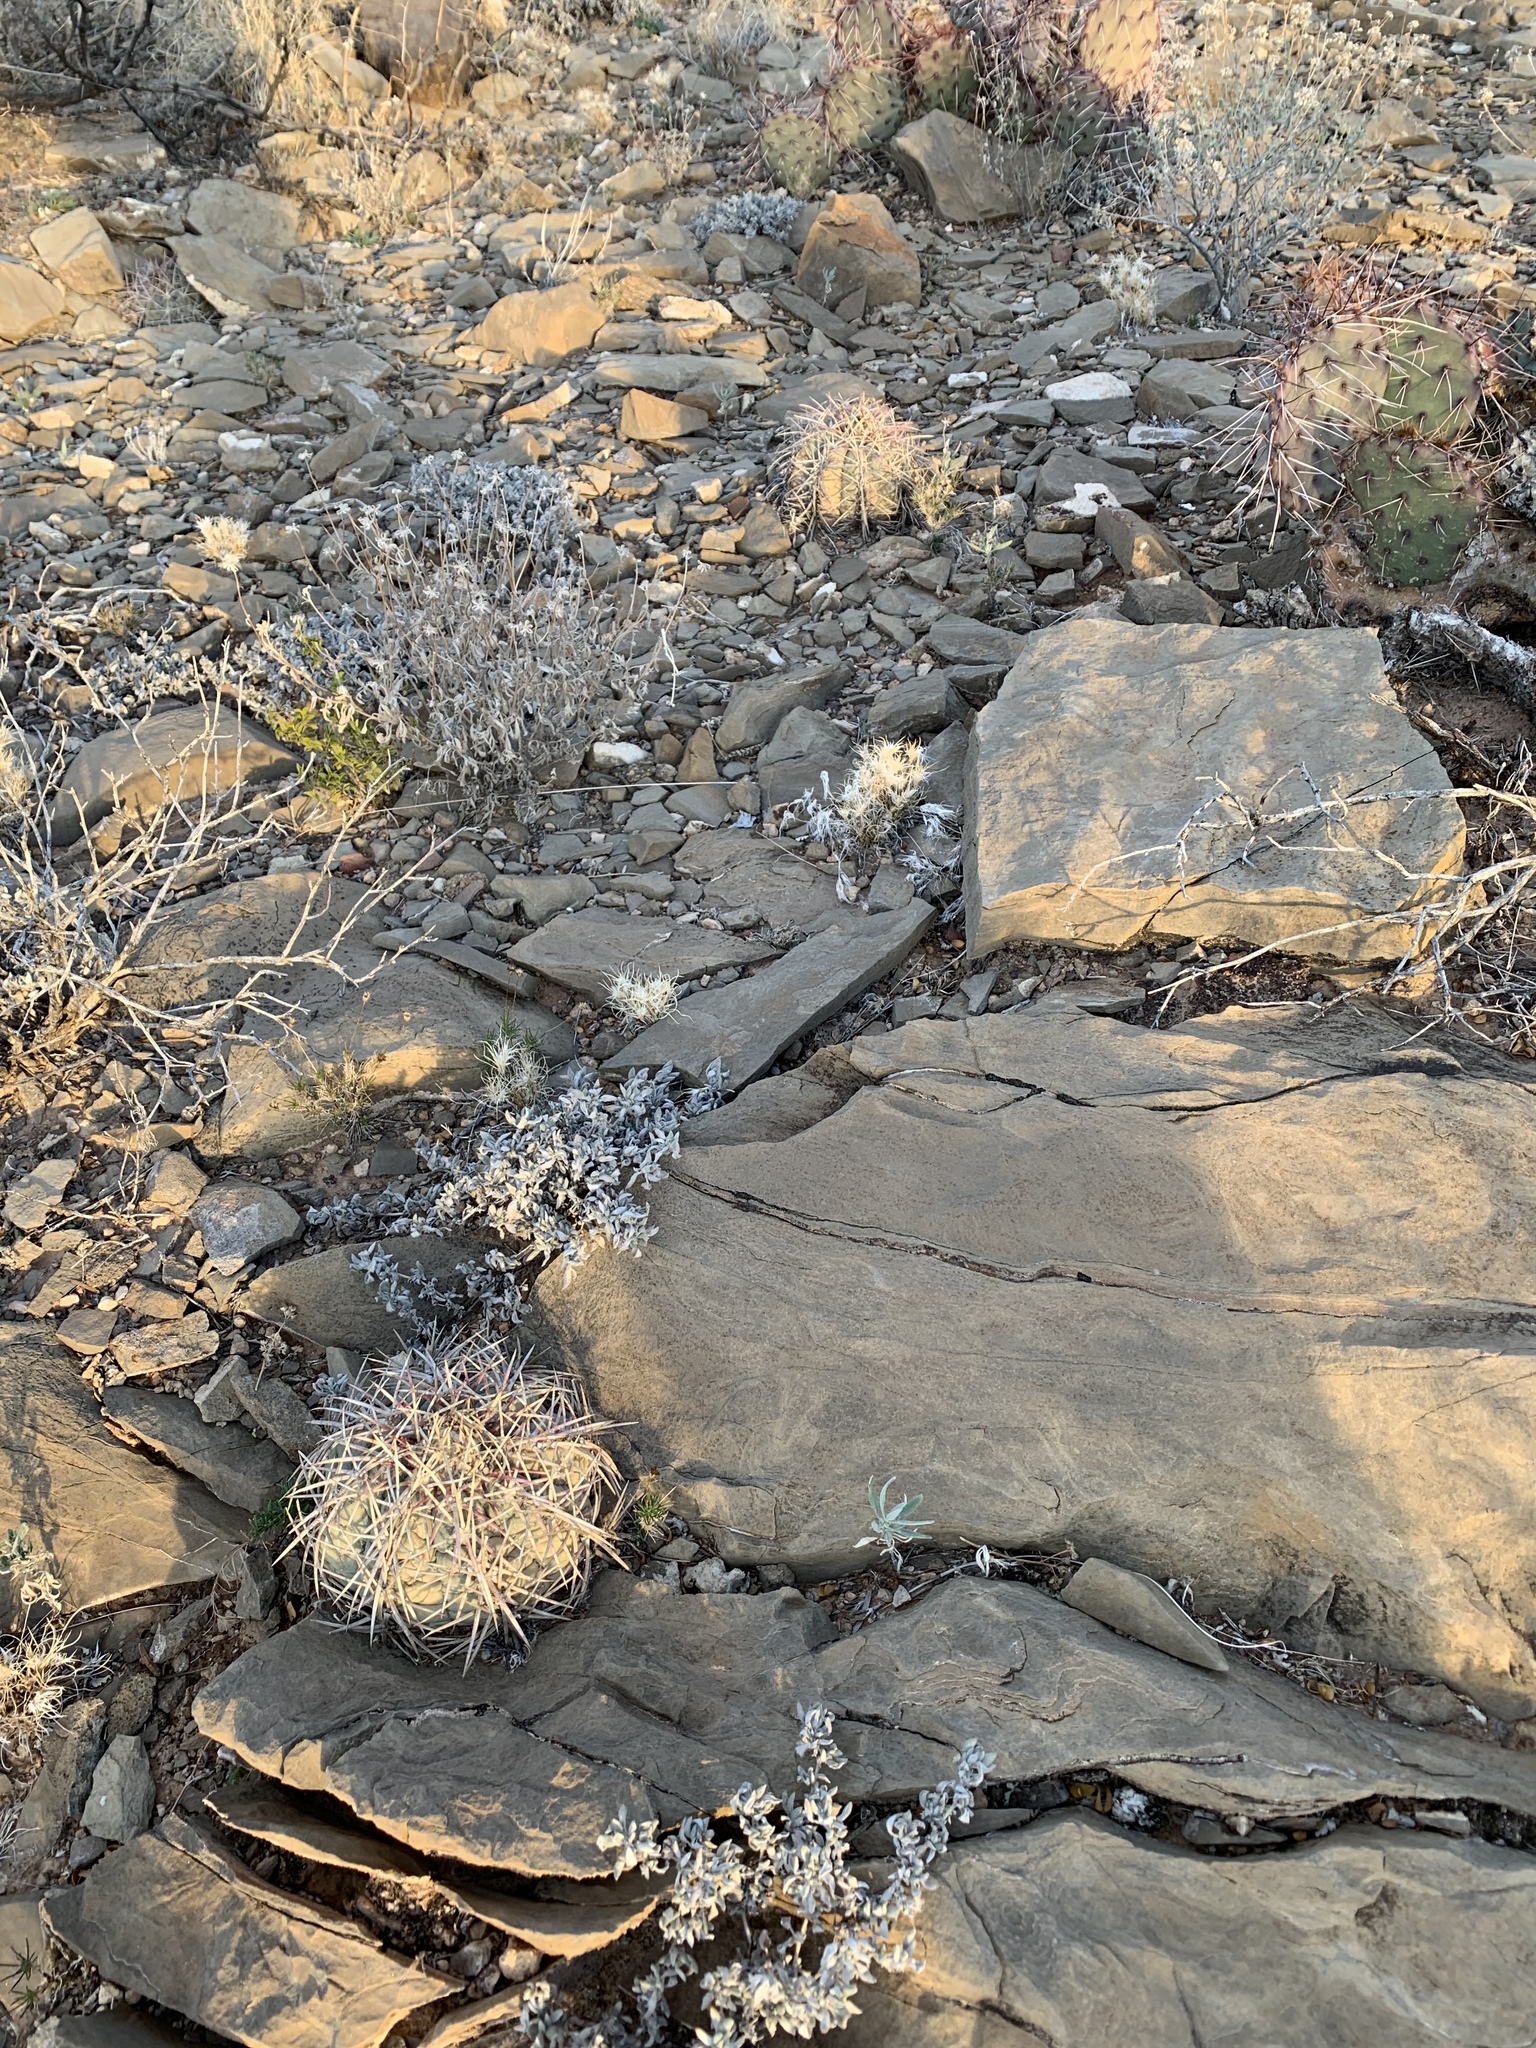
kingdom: Plantae
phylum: Tracheophyta
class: Magnoliopsida
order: Caryophyllales
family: Cactaceae
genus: Echinocactus
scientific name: Echinocactus horizonthalonius
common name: Devilshead
